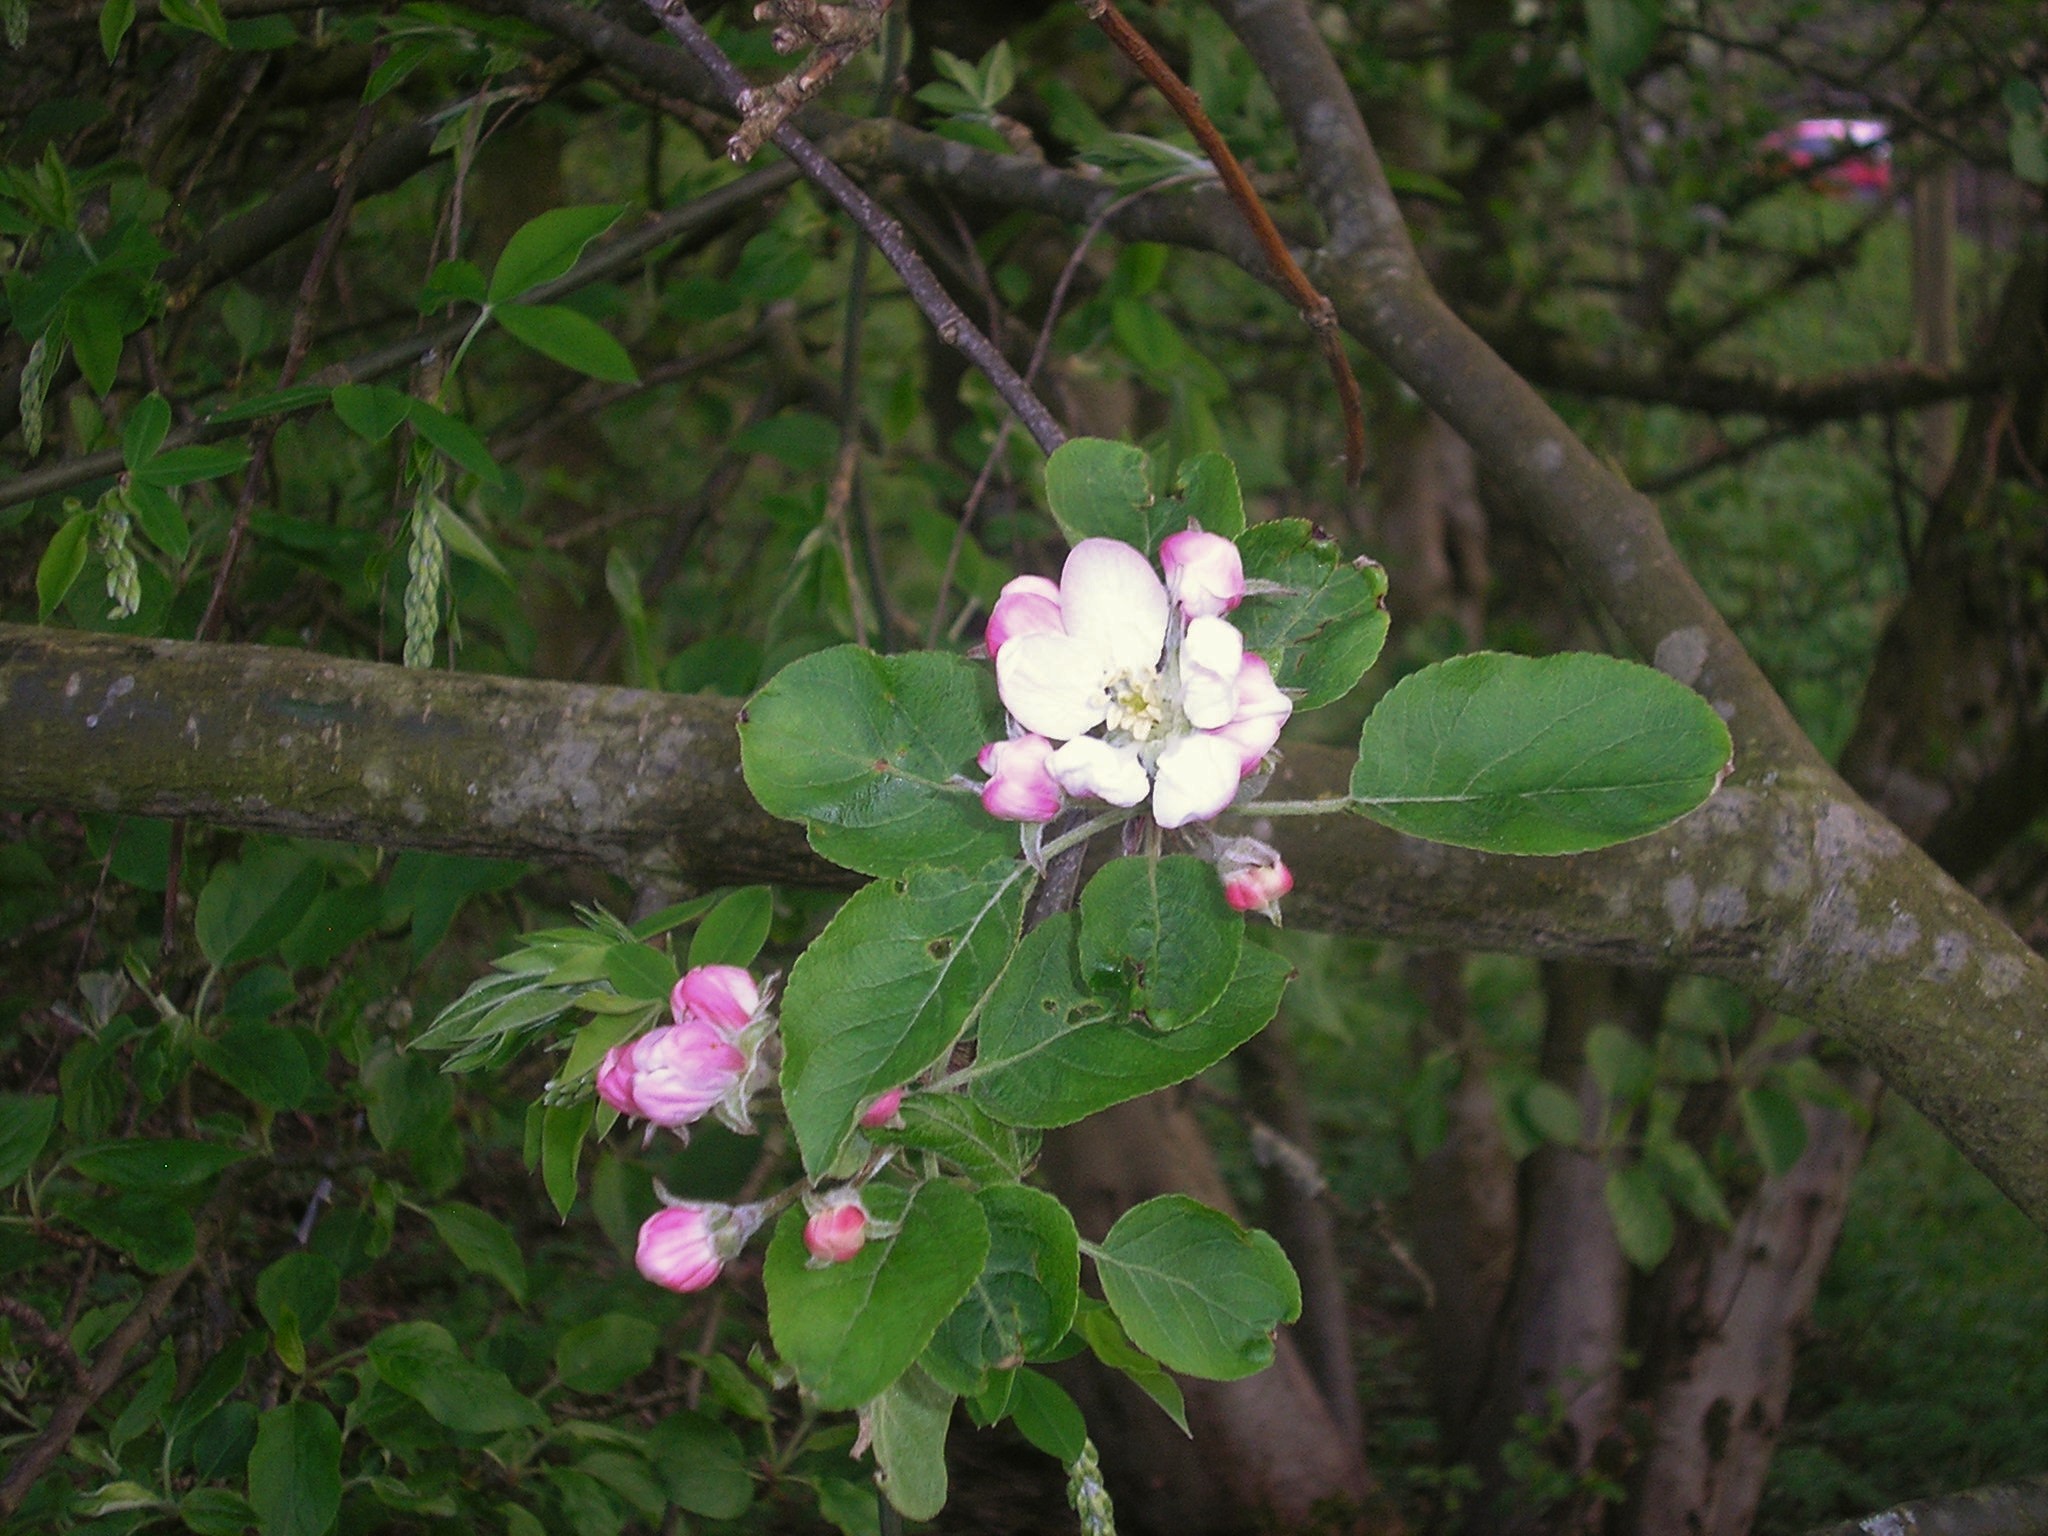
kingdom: Plantae
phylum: Tracheophyta
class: Magnoliopsida
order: Rosales
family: Rosaceae
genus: Malus
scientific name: Malus domestica
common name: Apple
